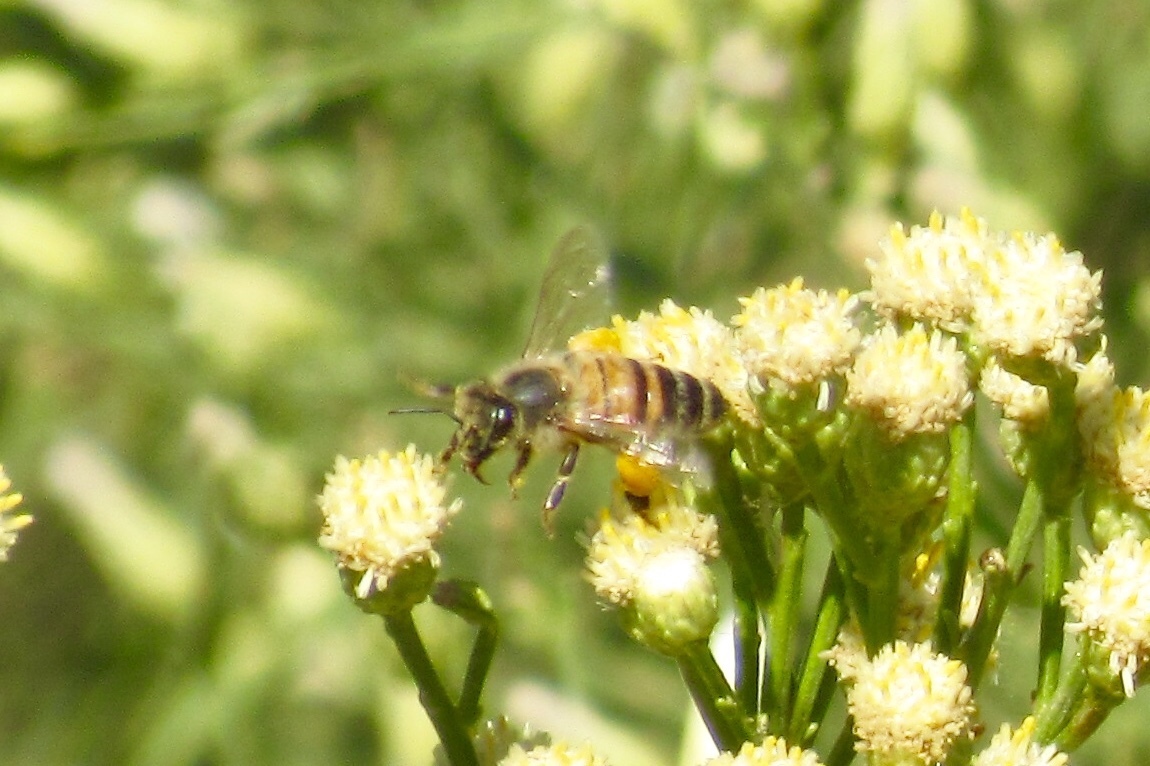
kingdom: Animalia
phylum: Arthropoda
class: Insecta
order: Hymenoptera
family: Apidae
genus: Apis
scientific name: Apis mellifera
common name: Honey bee
